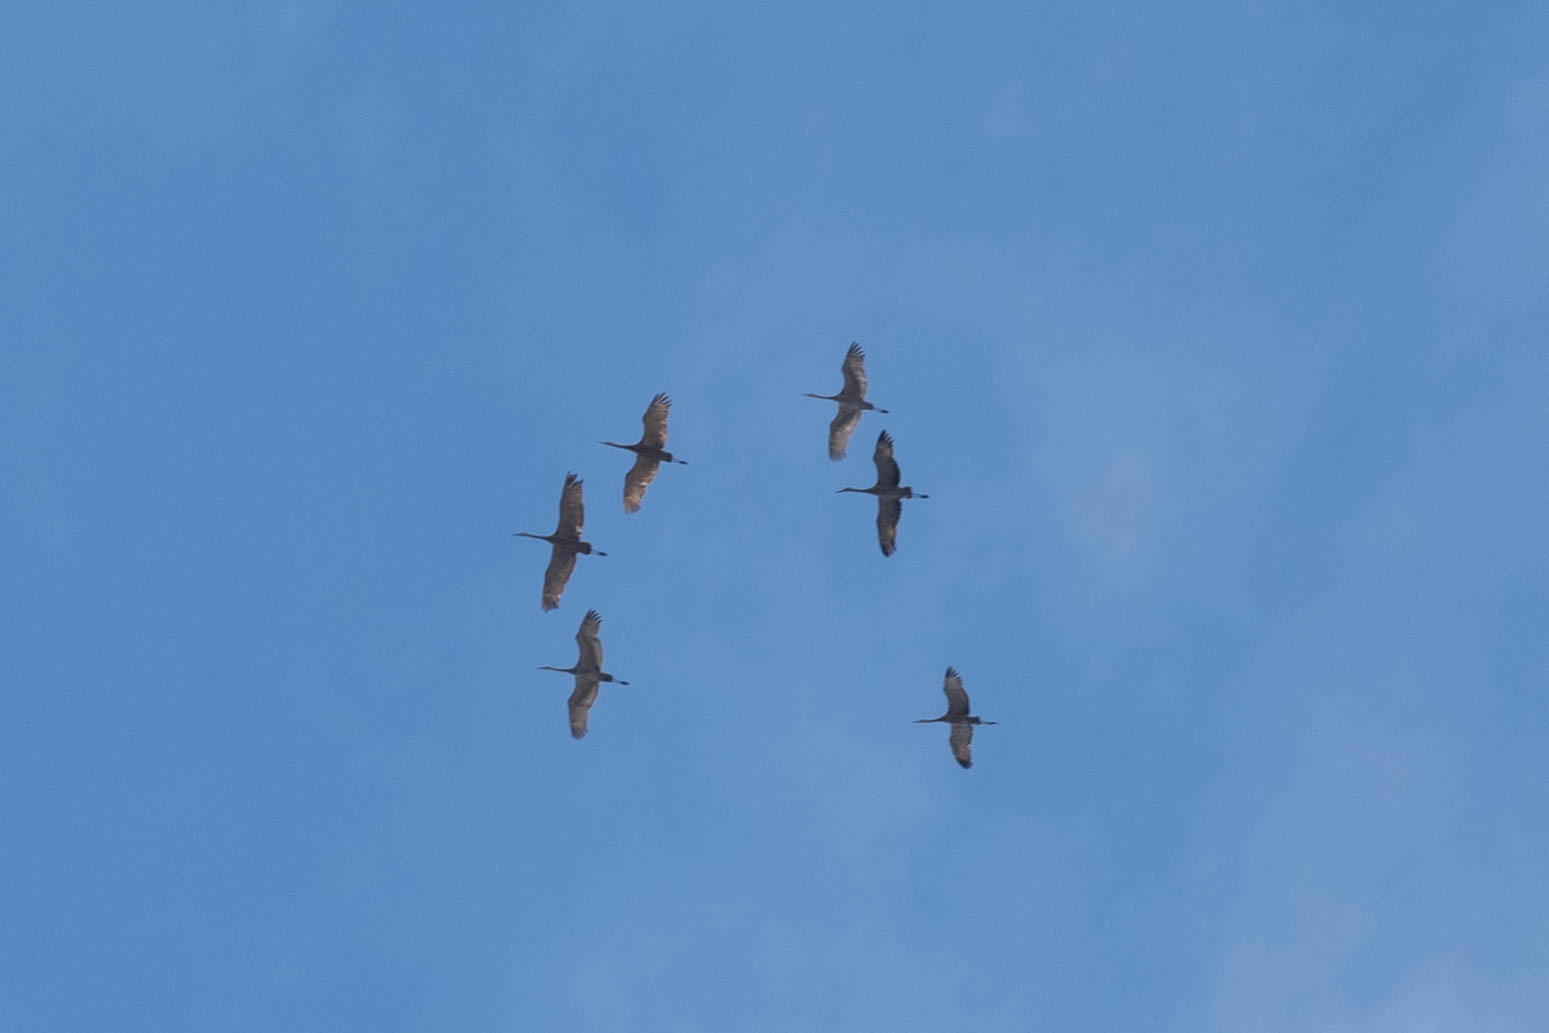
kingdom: Animalia
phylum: Chordata
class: Aves
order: Gruiformes
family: Gruidae
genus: Grus
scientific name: Grus canadensis
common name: Sandhill crane
